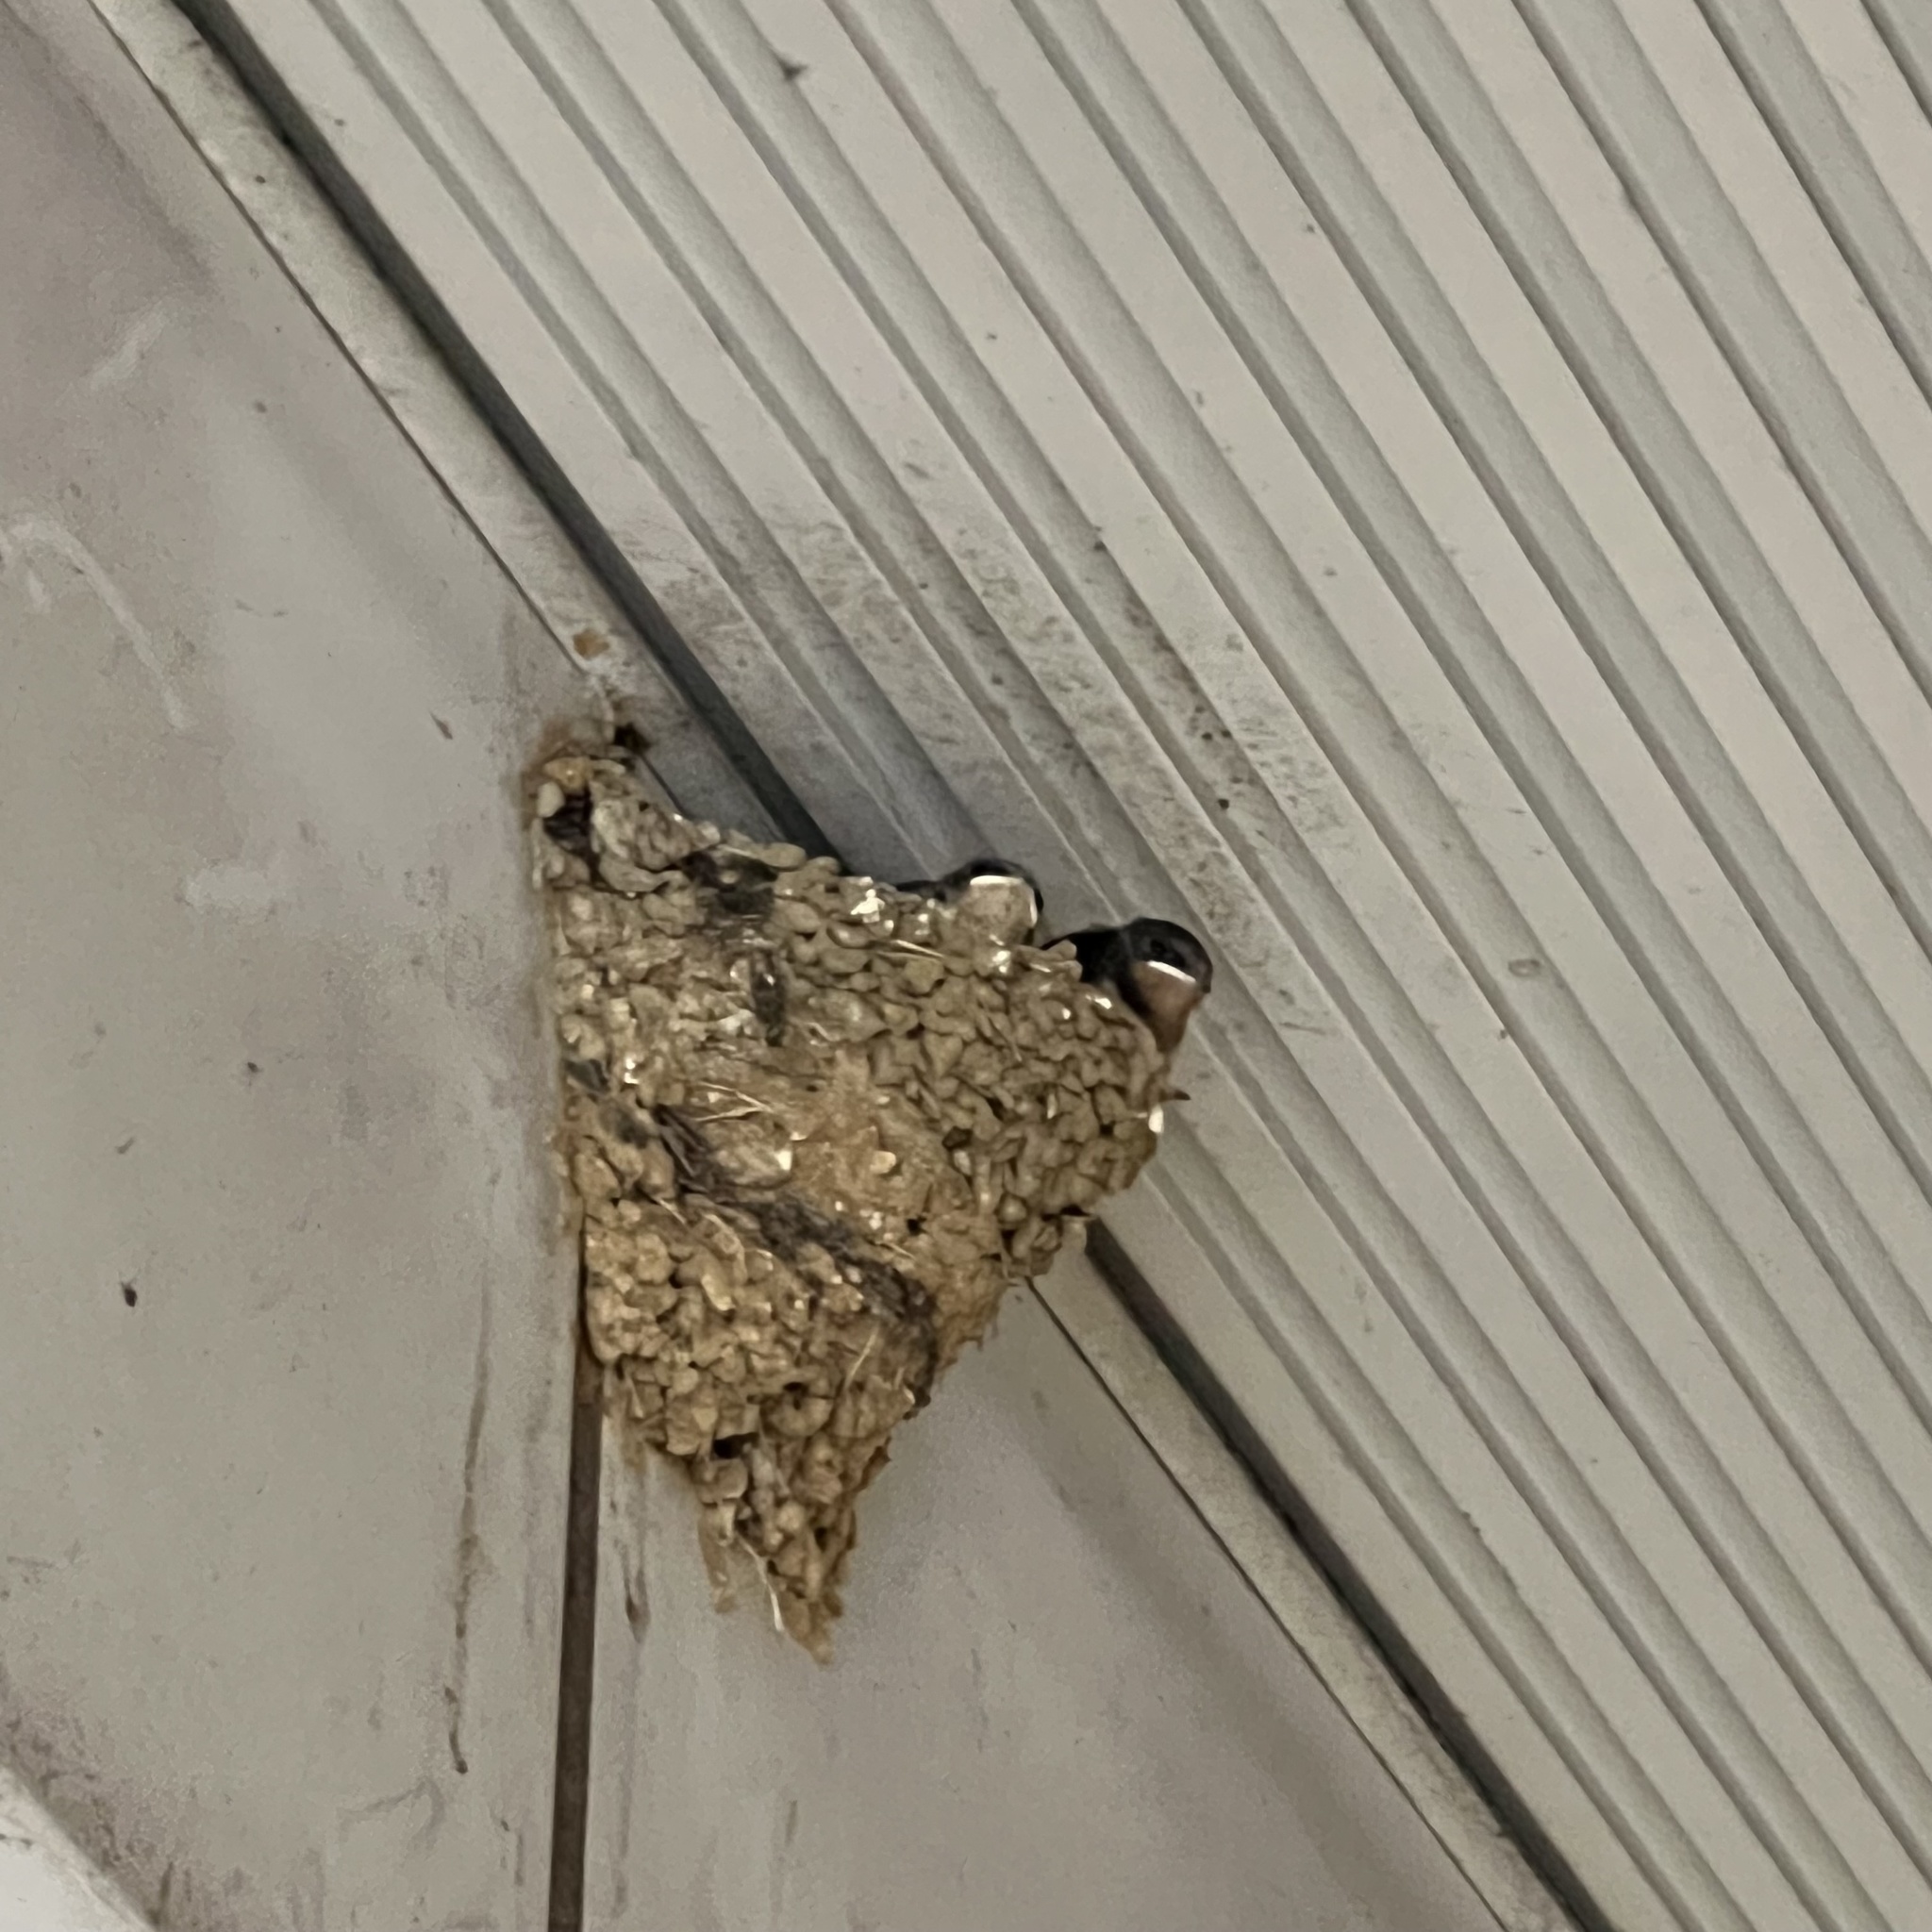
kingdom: Animalia
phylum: Chordata
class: Aves
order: Passeriformes
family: Hirundinidae
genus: Hirundo
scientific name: Hirundo rustica
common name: Barn swallow
